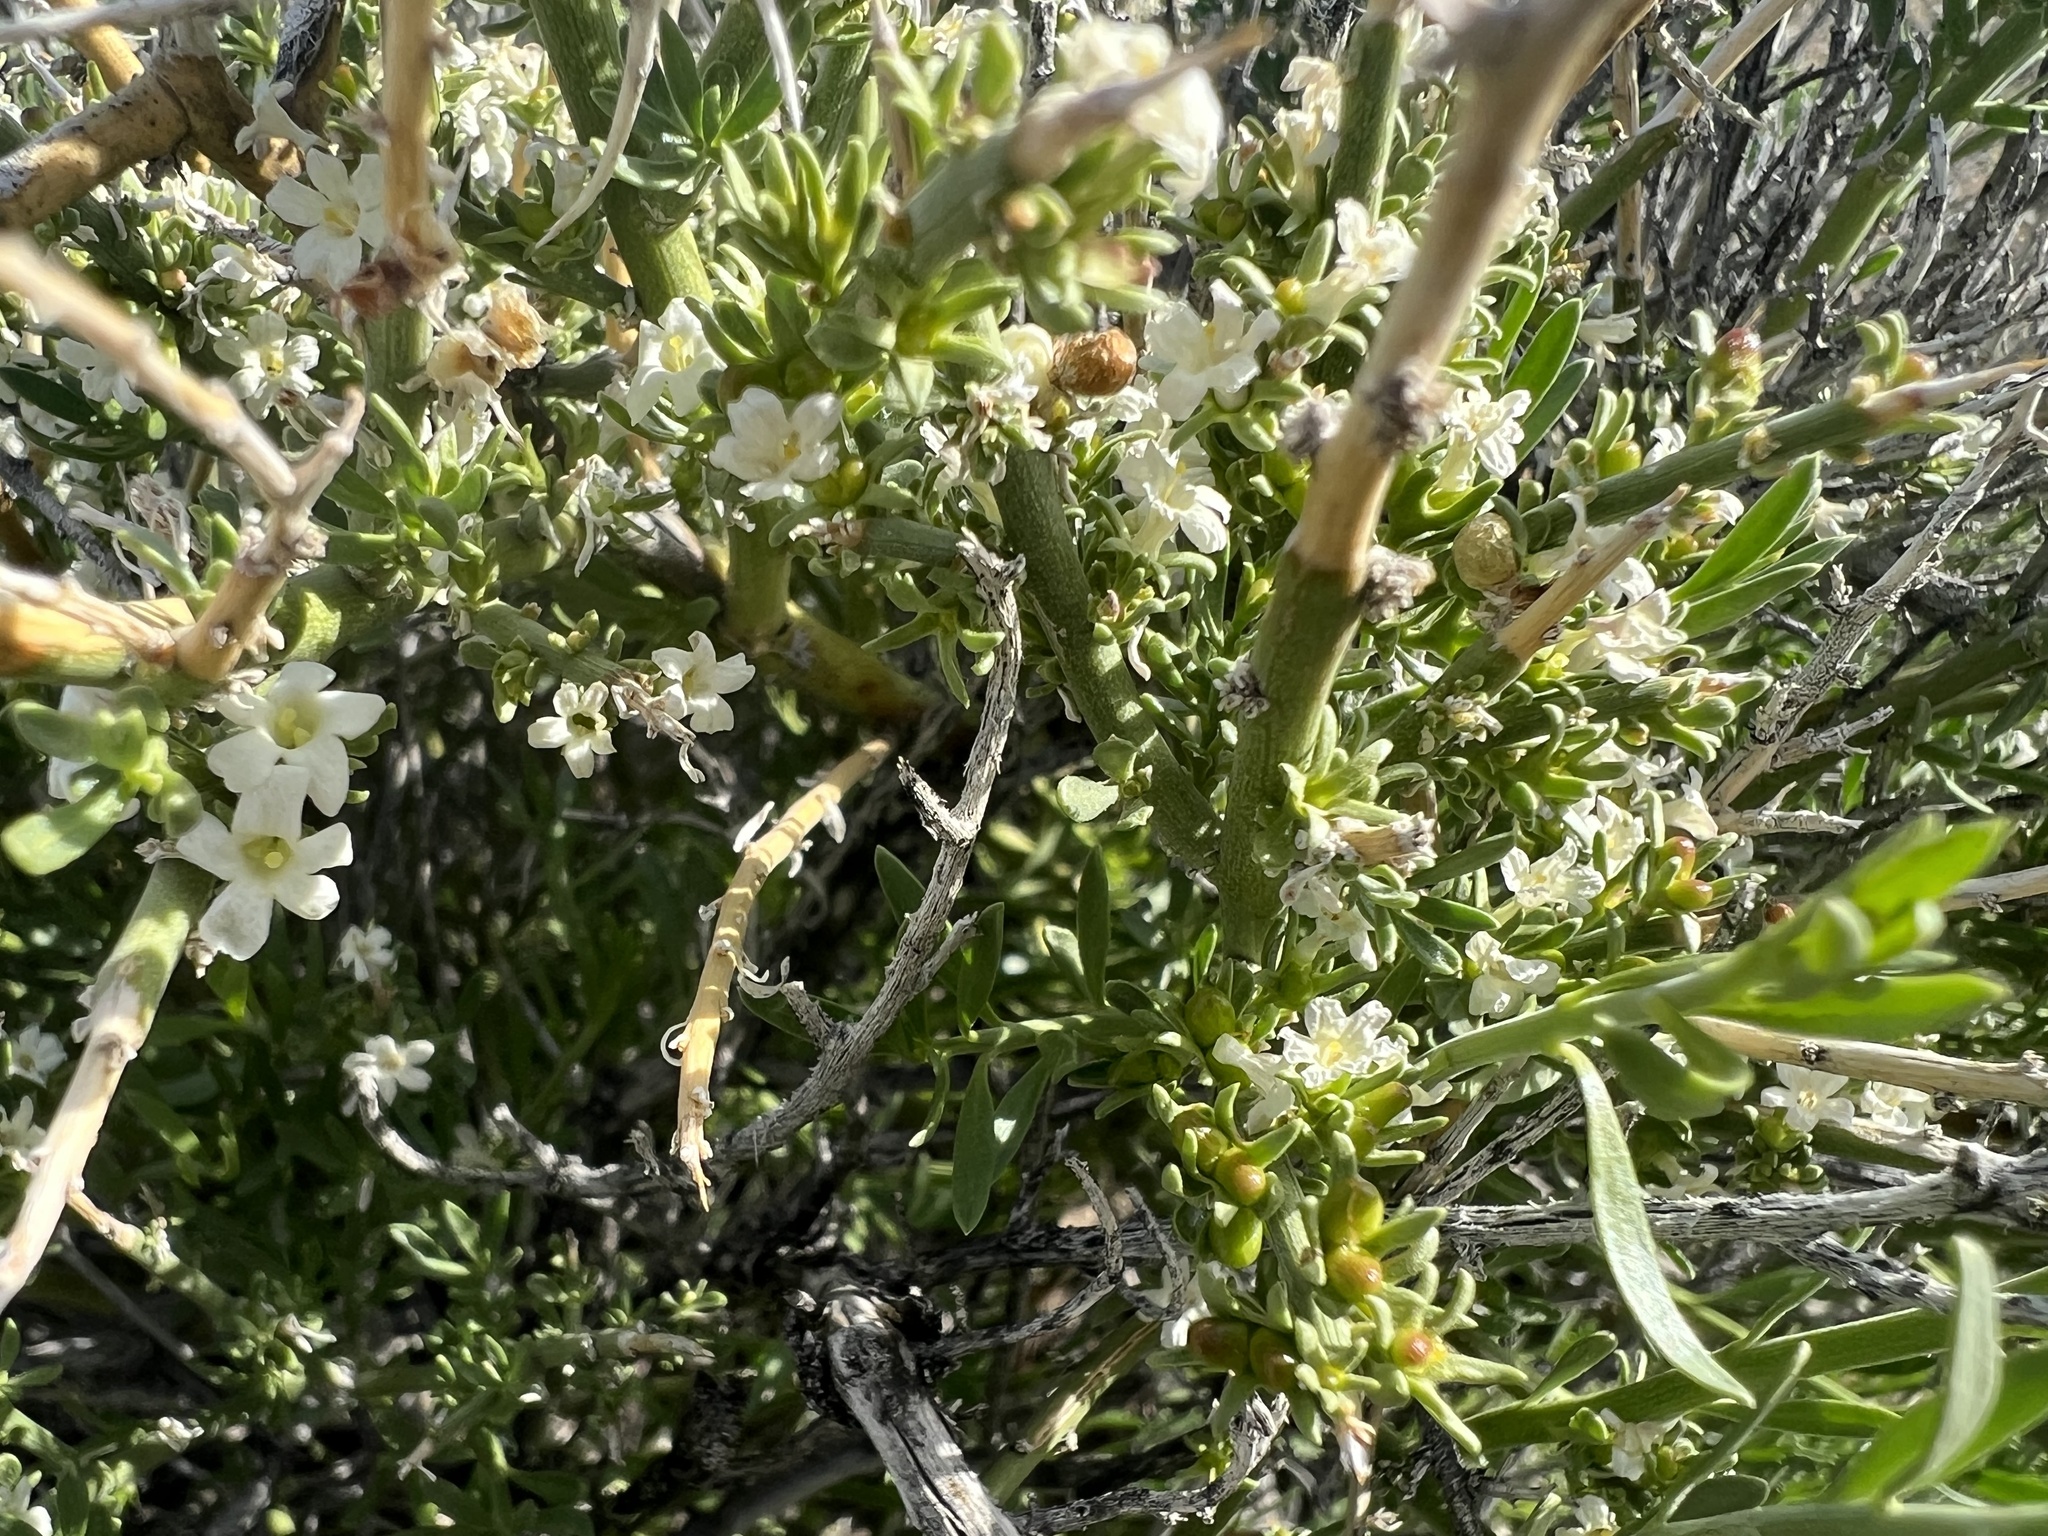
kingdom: Plantae
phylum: Tracheophyta
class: Magnoliopsida
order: Lamiales
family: Oleaceae
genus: Menodora
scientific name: Menodora spinescens
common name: Spiny menodora
